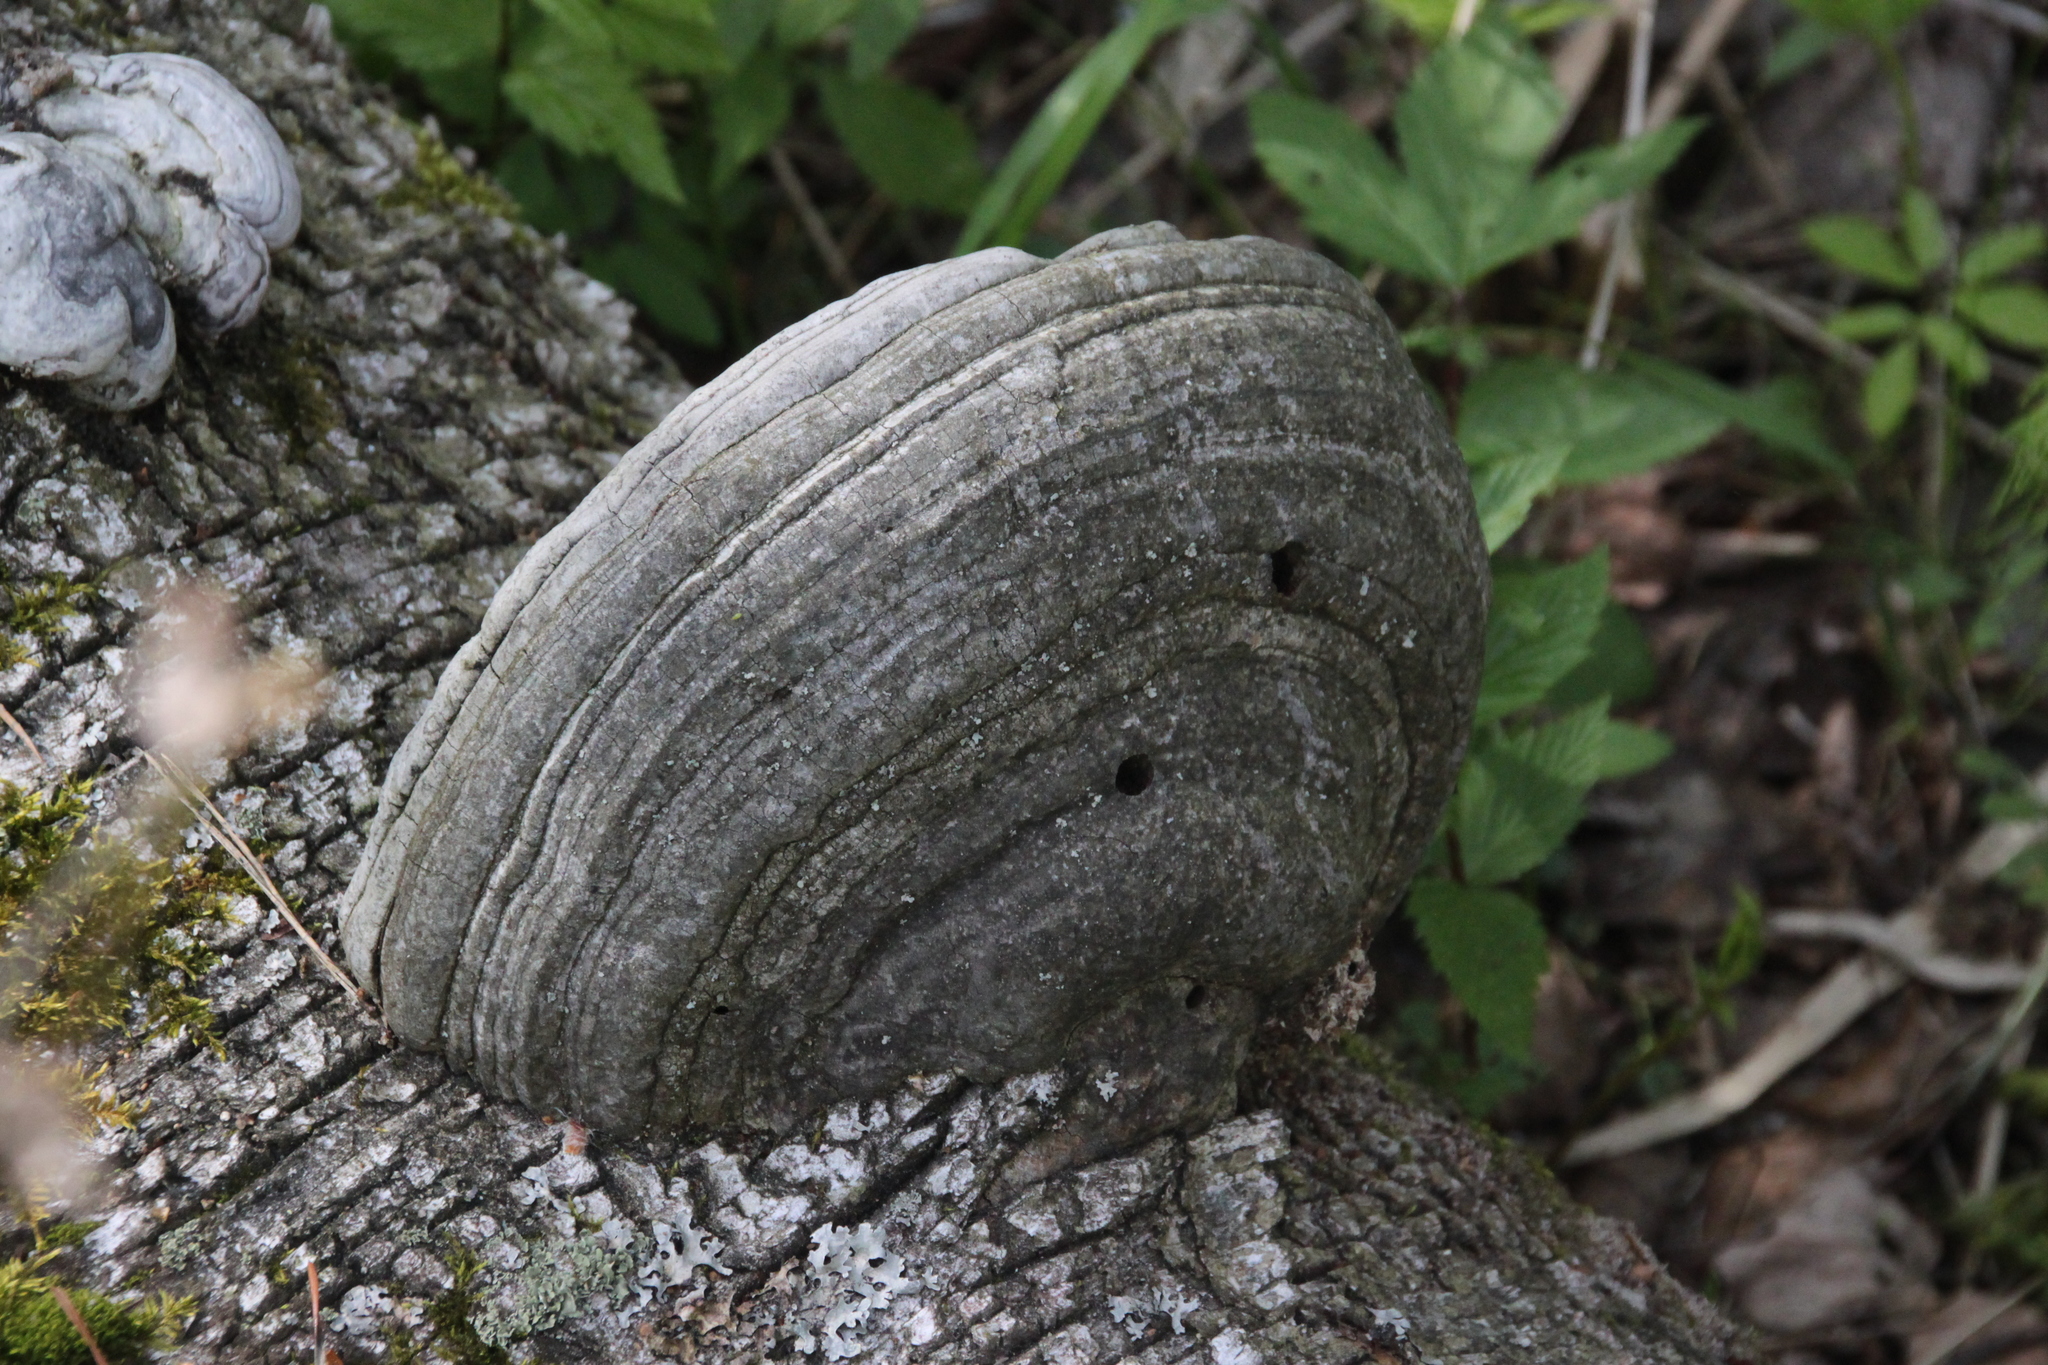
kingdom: Fungi
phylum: Basidiomycota
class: Agaricomycetes
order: Polyporales
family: Polyporaceae
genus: Fomes
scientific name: Fomes fomentarius
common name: Hoof fungus
